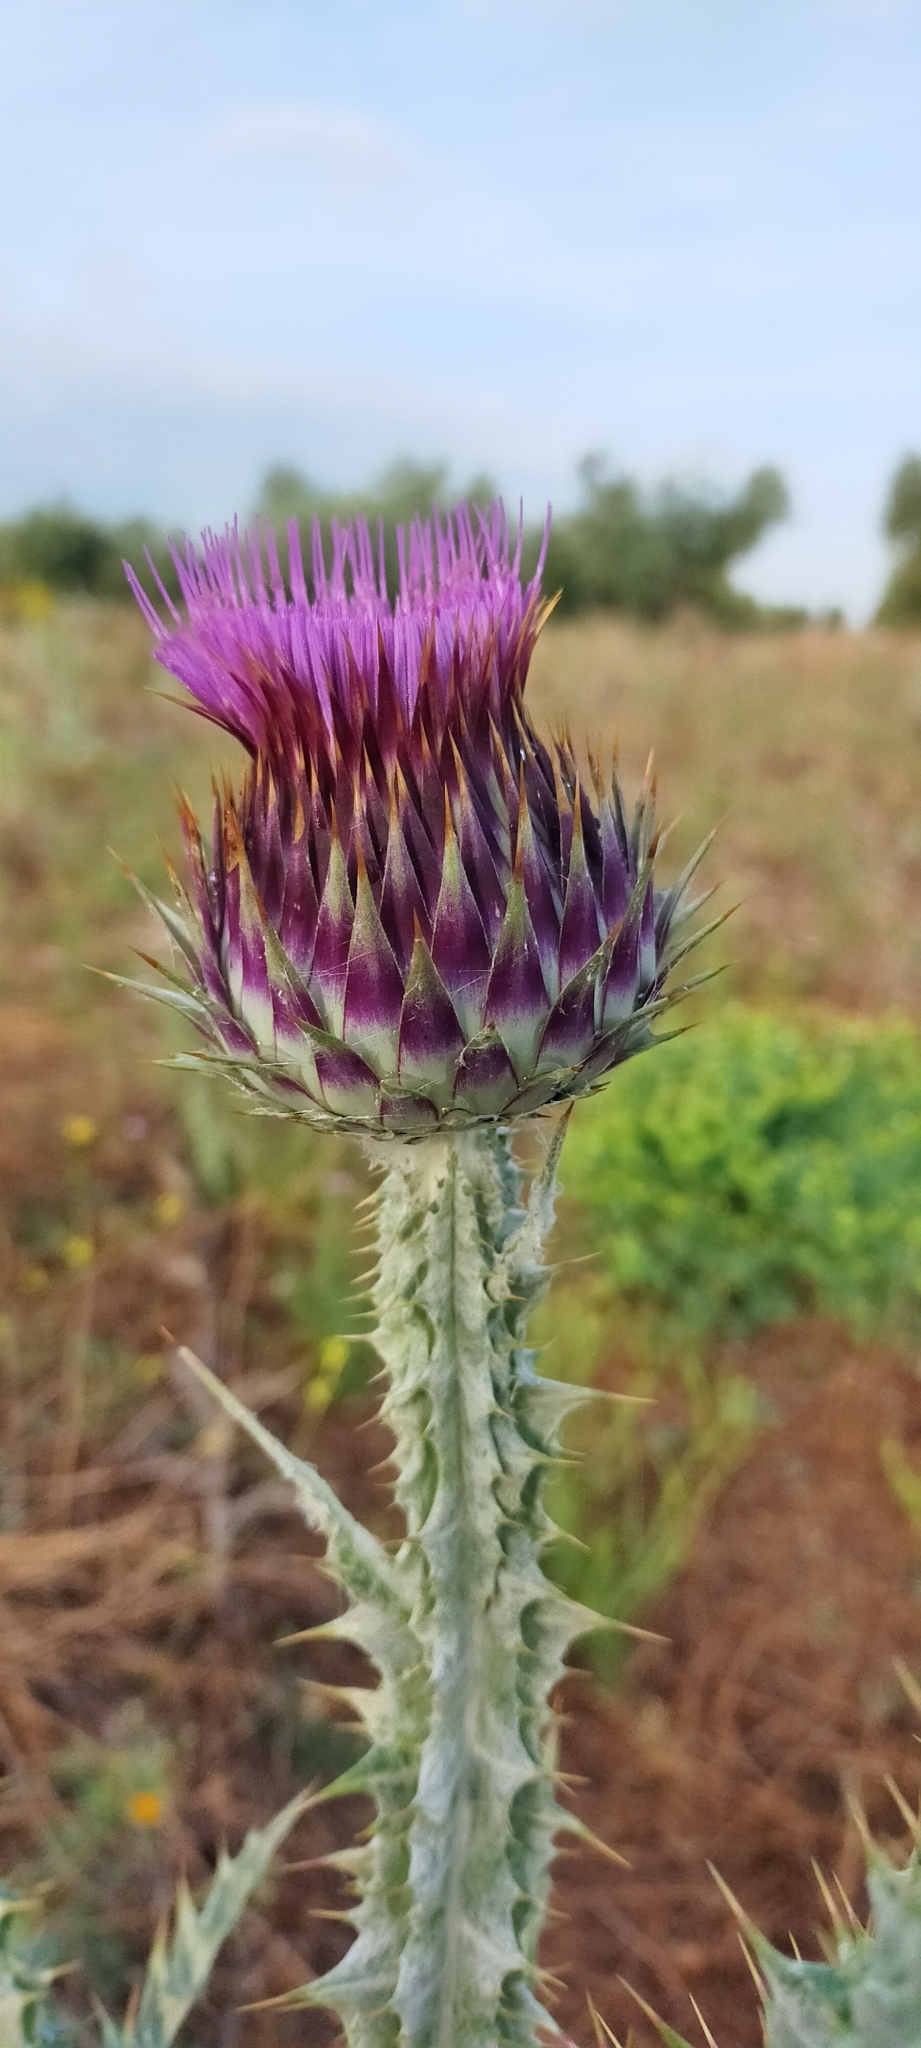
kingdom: Plantae
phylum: Tracheophyta
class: Magnoliopsida
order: Asterales
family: Asteraceae
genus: Onopordum
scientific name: Onopordum nervosum
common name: Reticulate thistle
